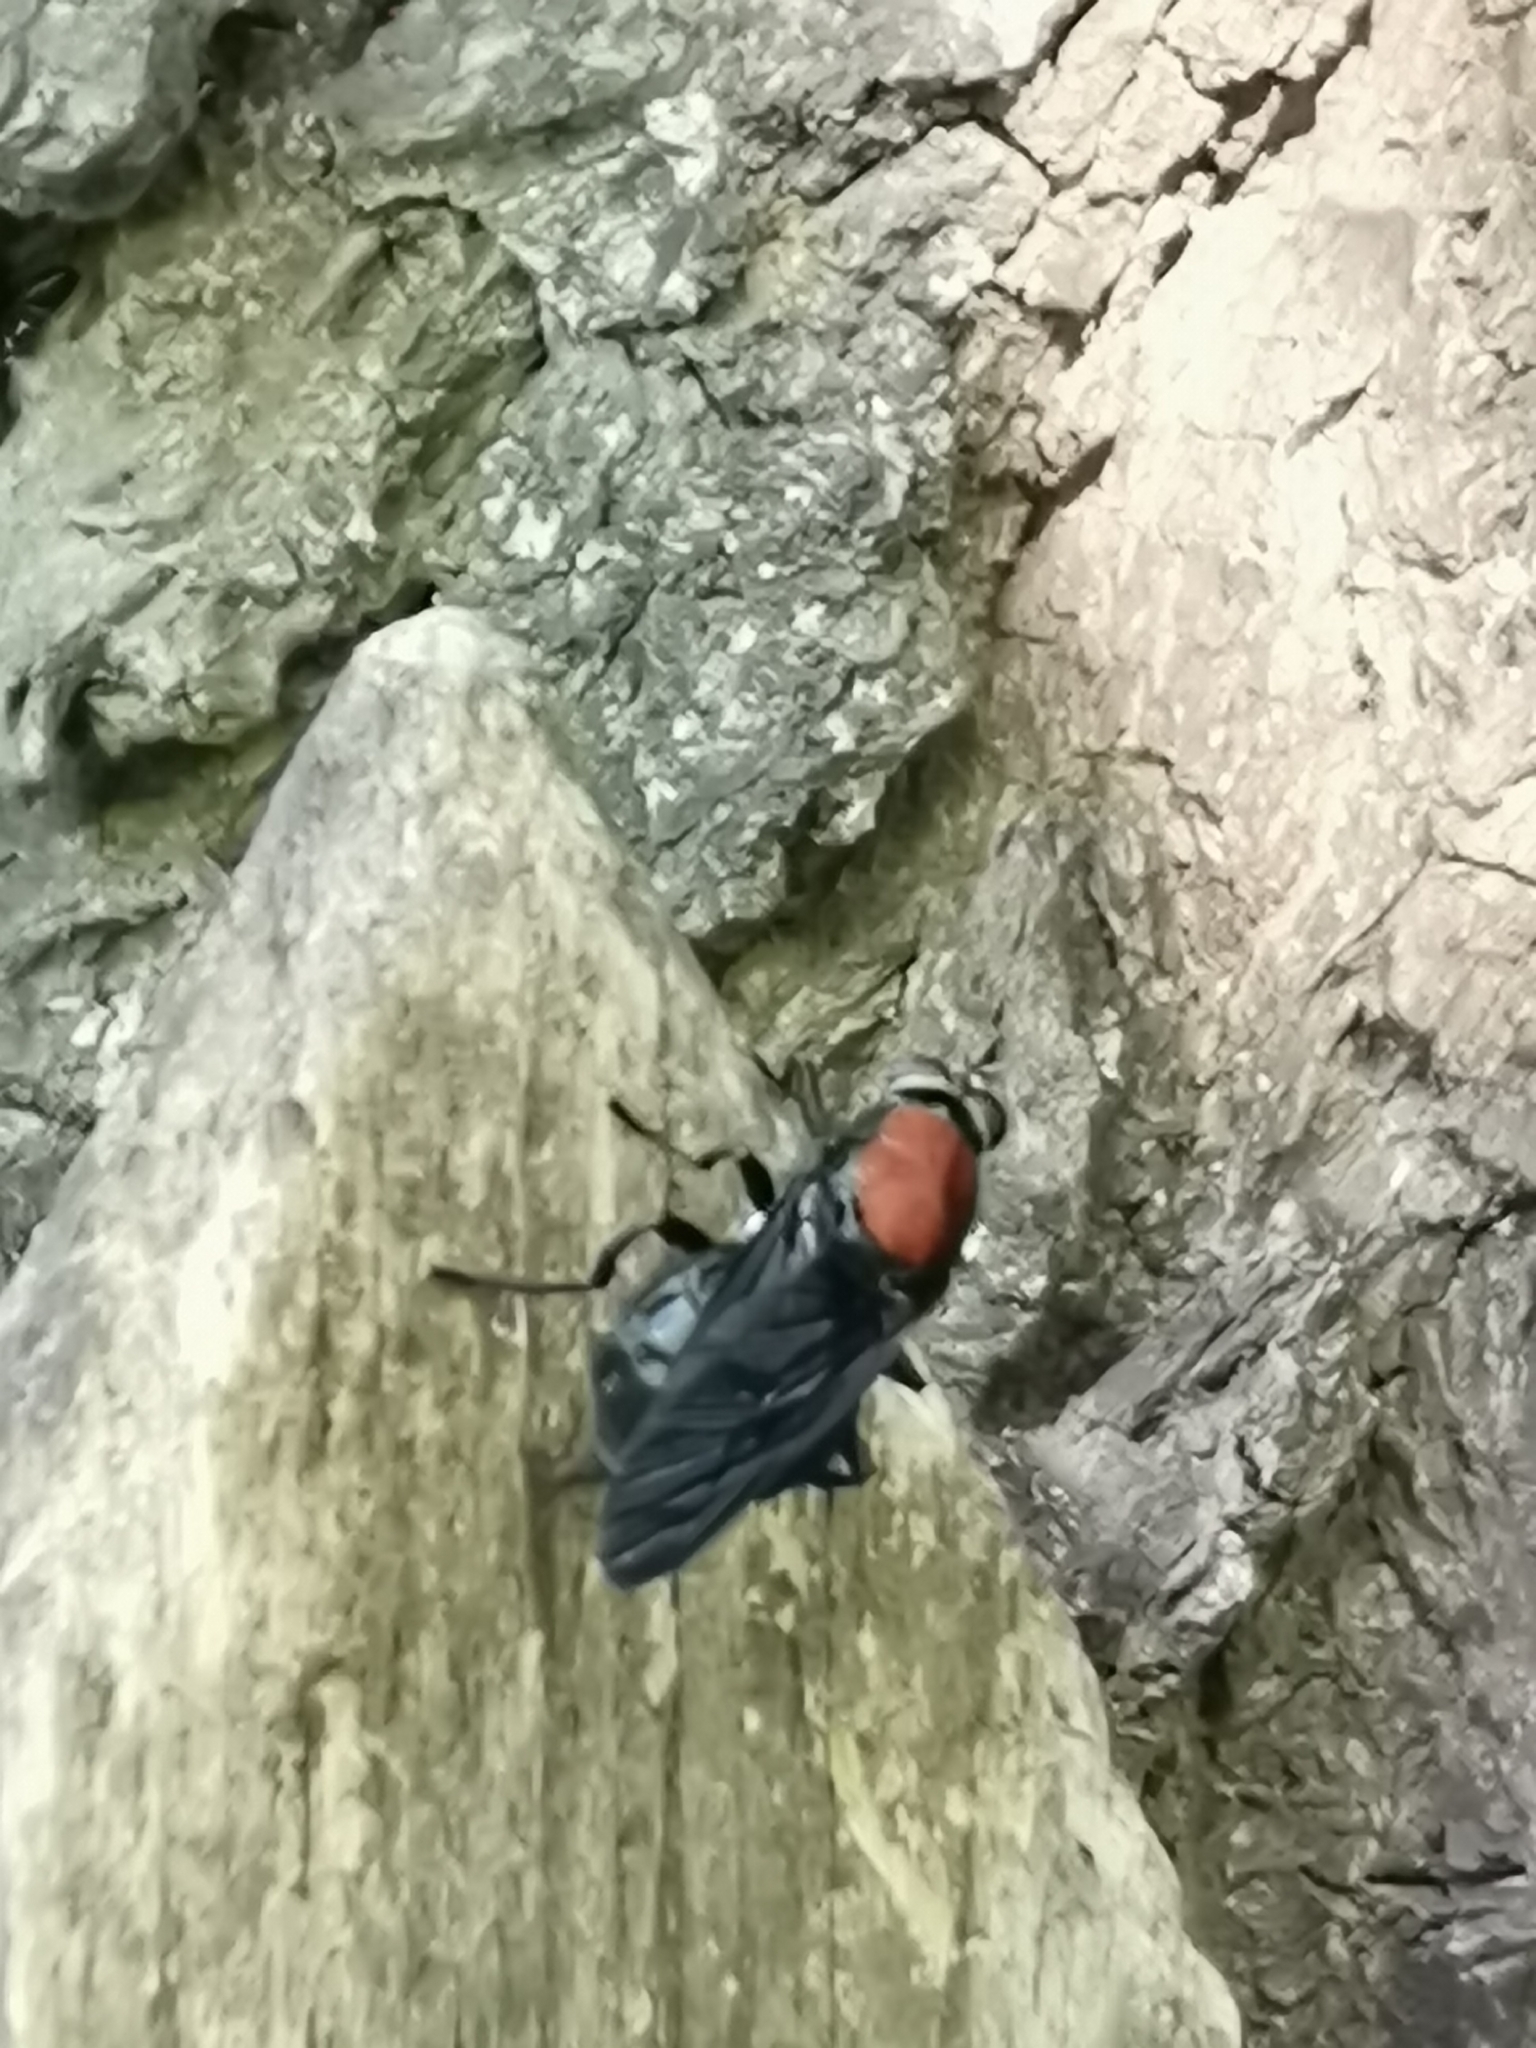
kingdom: Animalia
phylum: Arthropoda
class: Insecta
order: Diptera
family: Stratiomyidae
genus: Clitellaria
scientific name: Clitellaria ephippium
